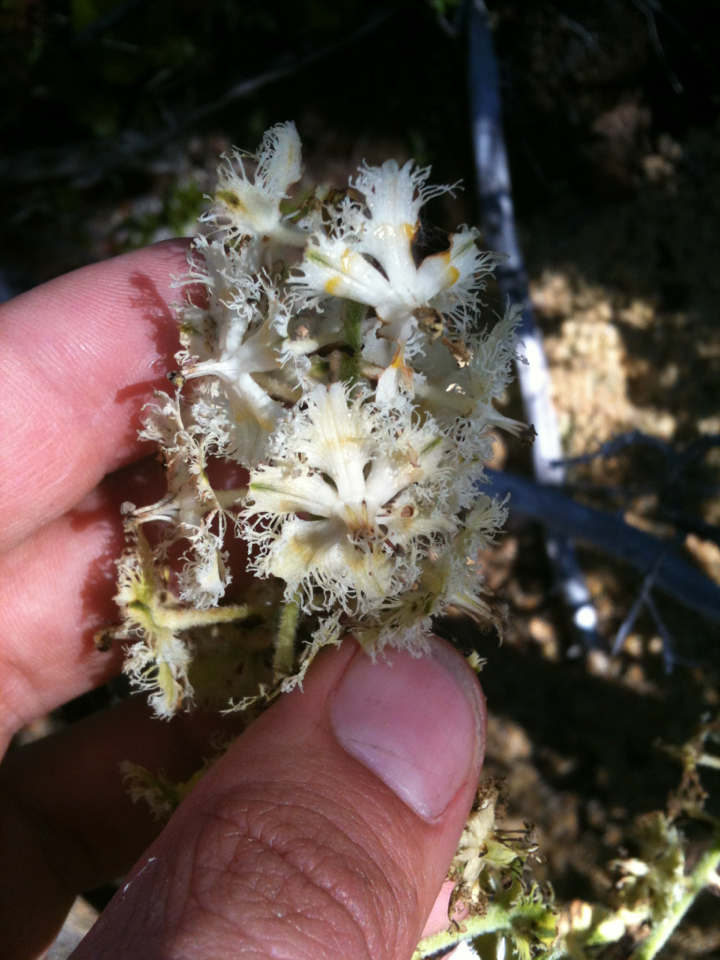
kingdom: Plantae
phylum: Tracheophyta
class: Liliopsida
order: Liliales
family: Melanthiaceae
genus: Veratrum
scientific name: Veratrum fimbriatum
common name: Fringe false hellobore
